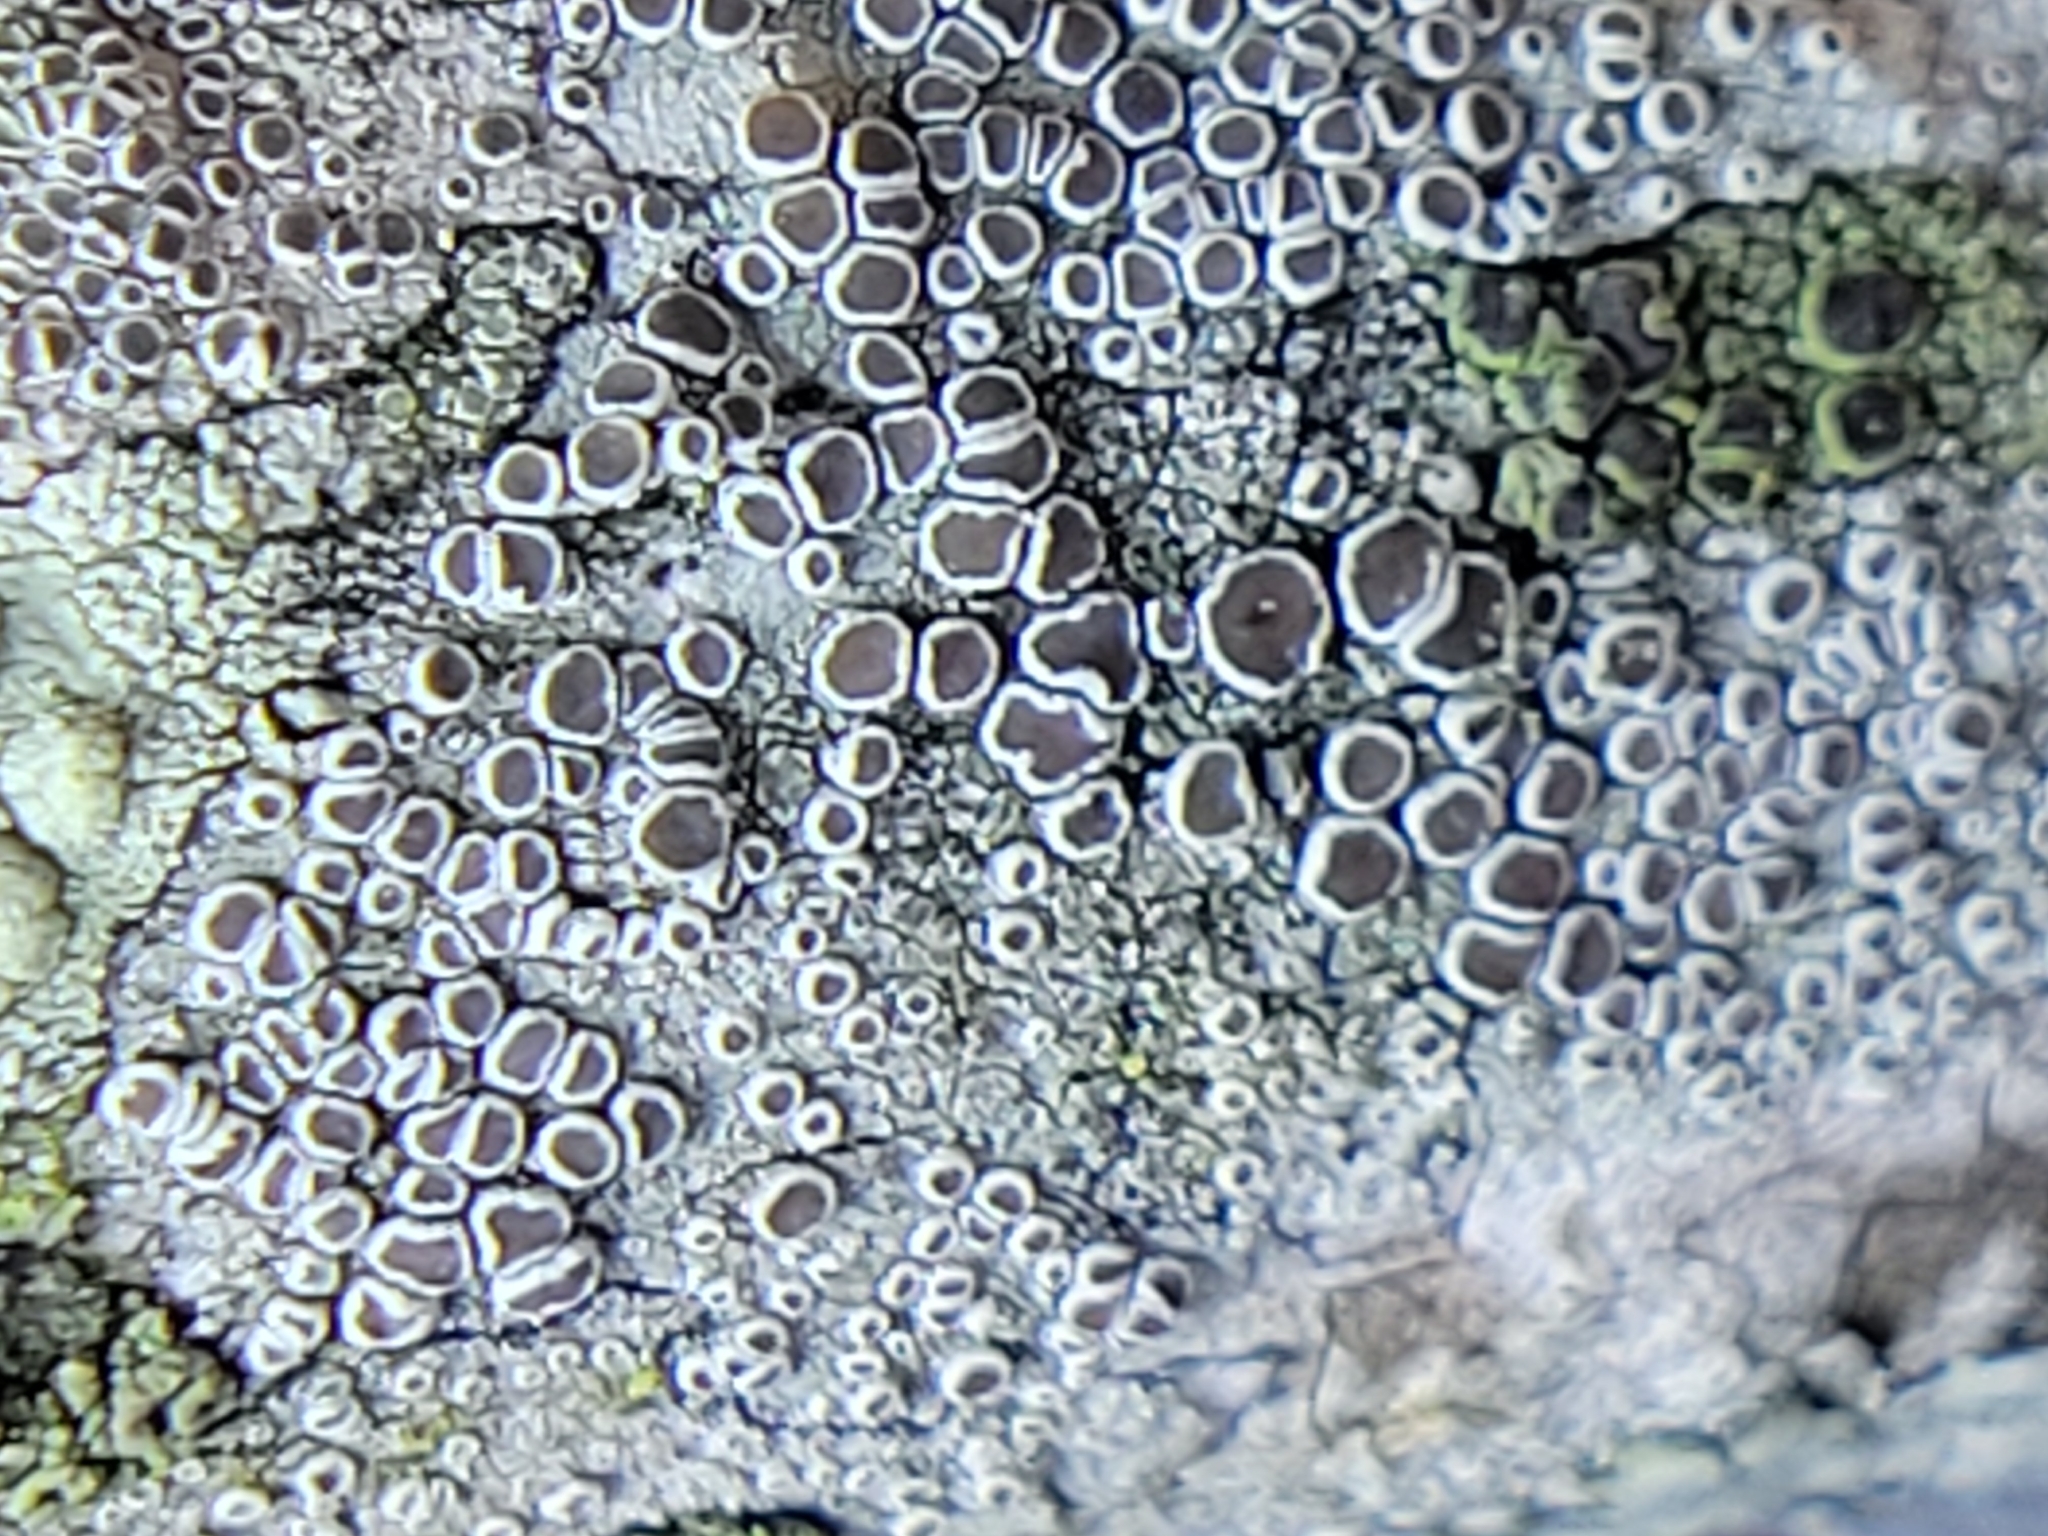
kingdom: Fungi
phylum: Ascomycota
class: Lecanoromycetes
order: Lecanorales
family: Lecanoraceae
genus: Lecanora
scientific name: Lecanora chlarotera
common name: Brown rim-lichen
